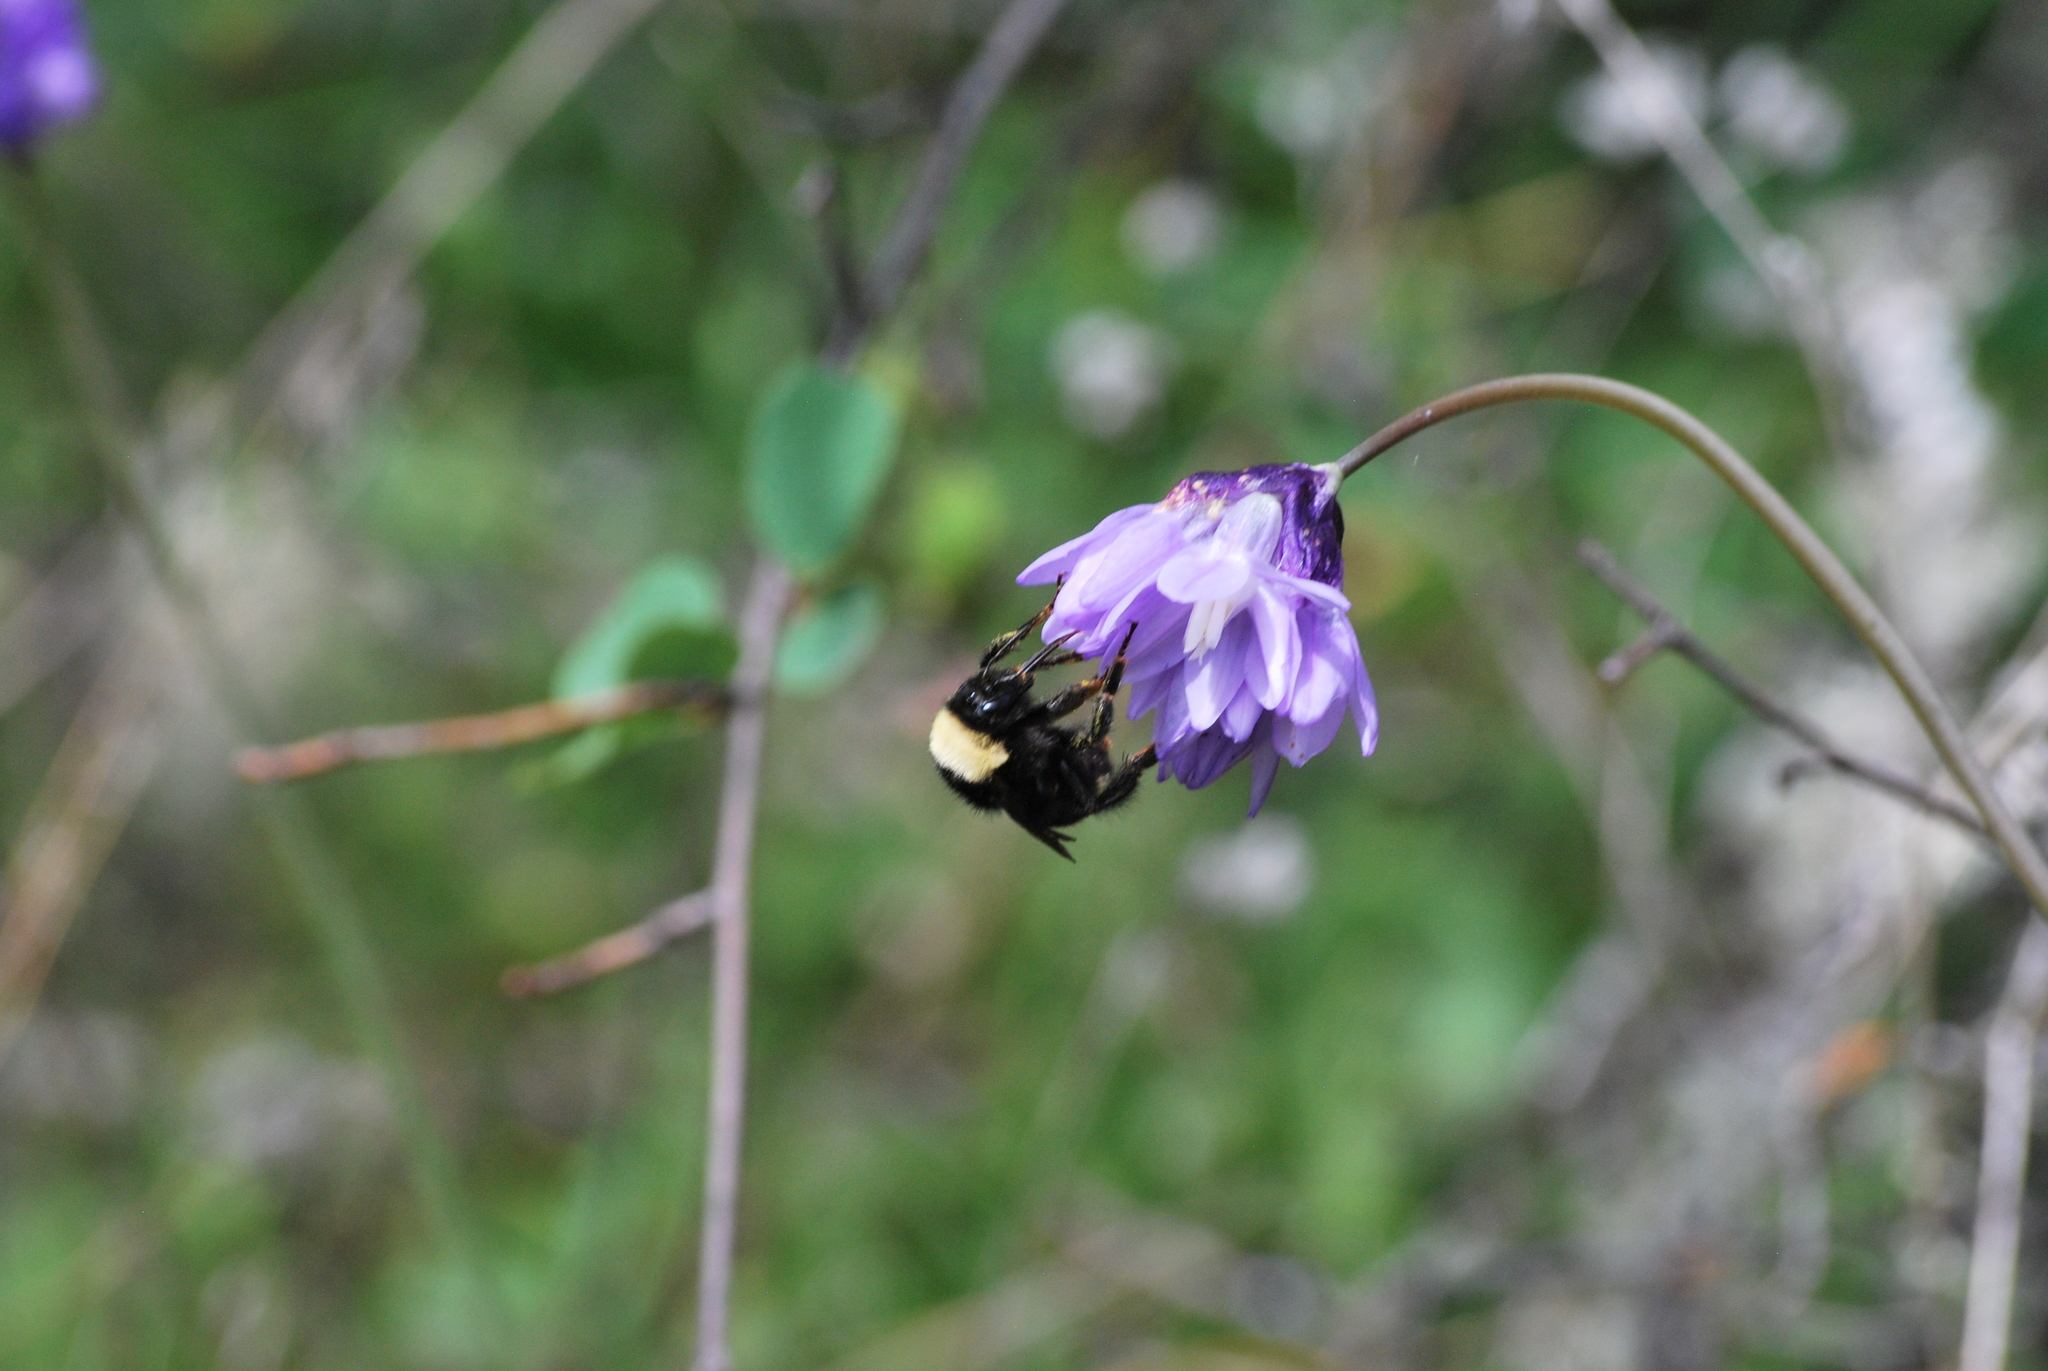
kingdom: Animalia
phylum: Arthropoda
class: Insecta
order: Hymenoptera
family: Apidae
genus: Bombus
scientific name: Bombus californicus
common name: California bumble bee
